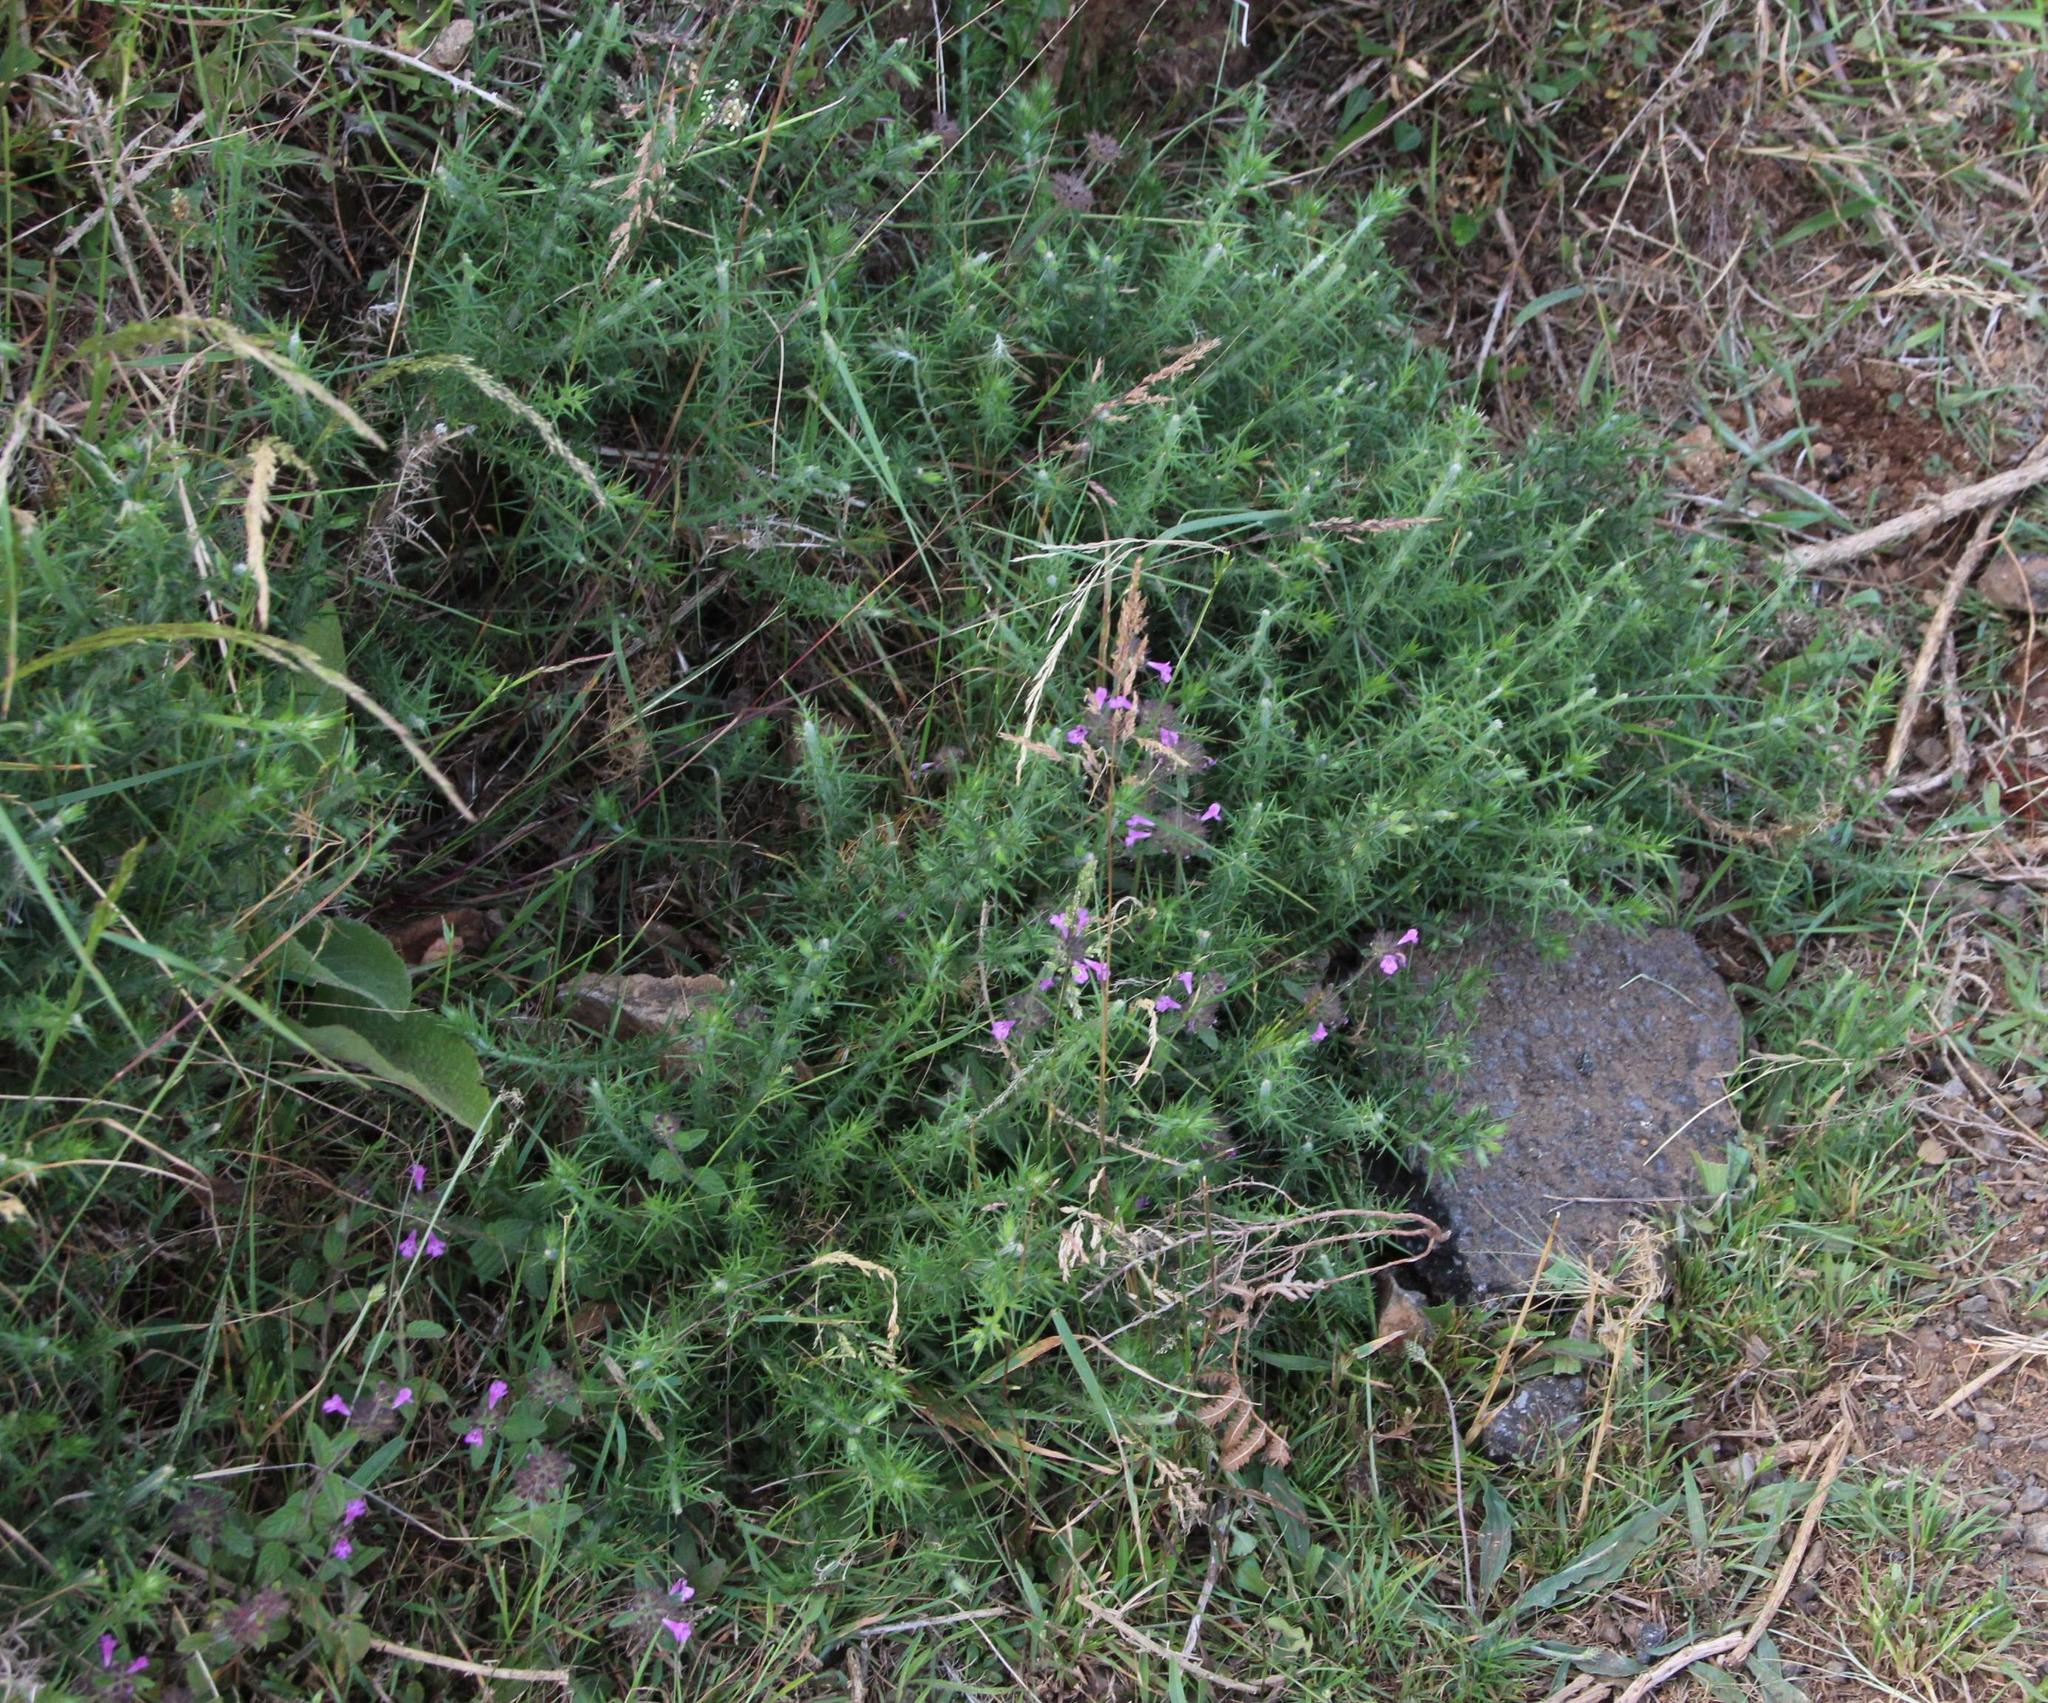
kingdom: Plantae
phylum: Tracheophyta
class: Magnoliopsida
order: Lamiales
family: Lamiaceae
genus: Clinopodium
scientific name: Clinopodium vulgare
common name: Wild basil
